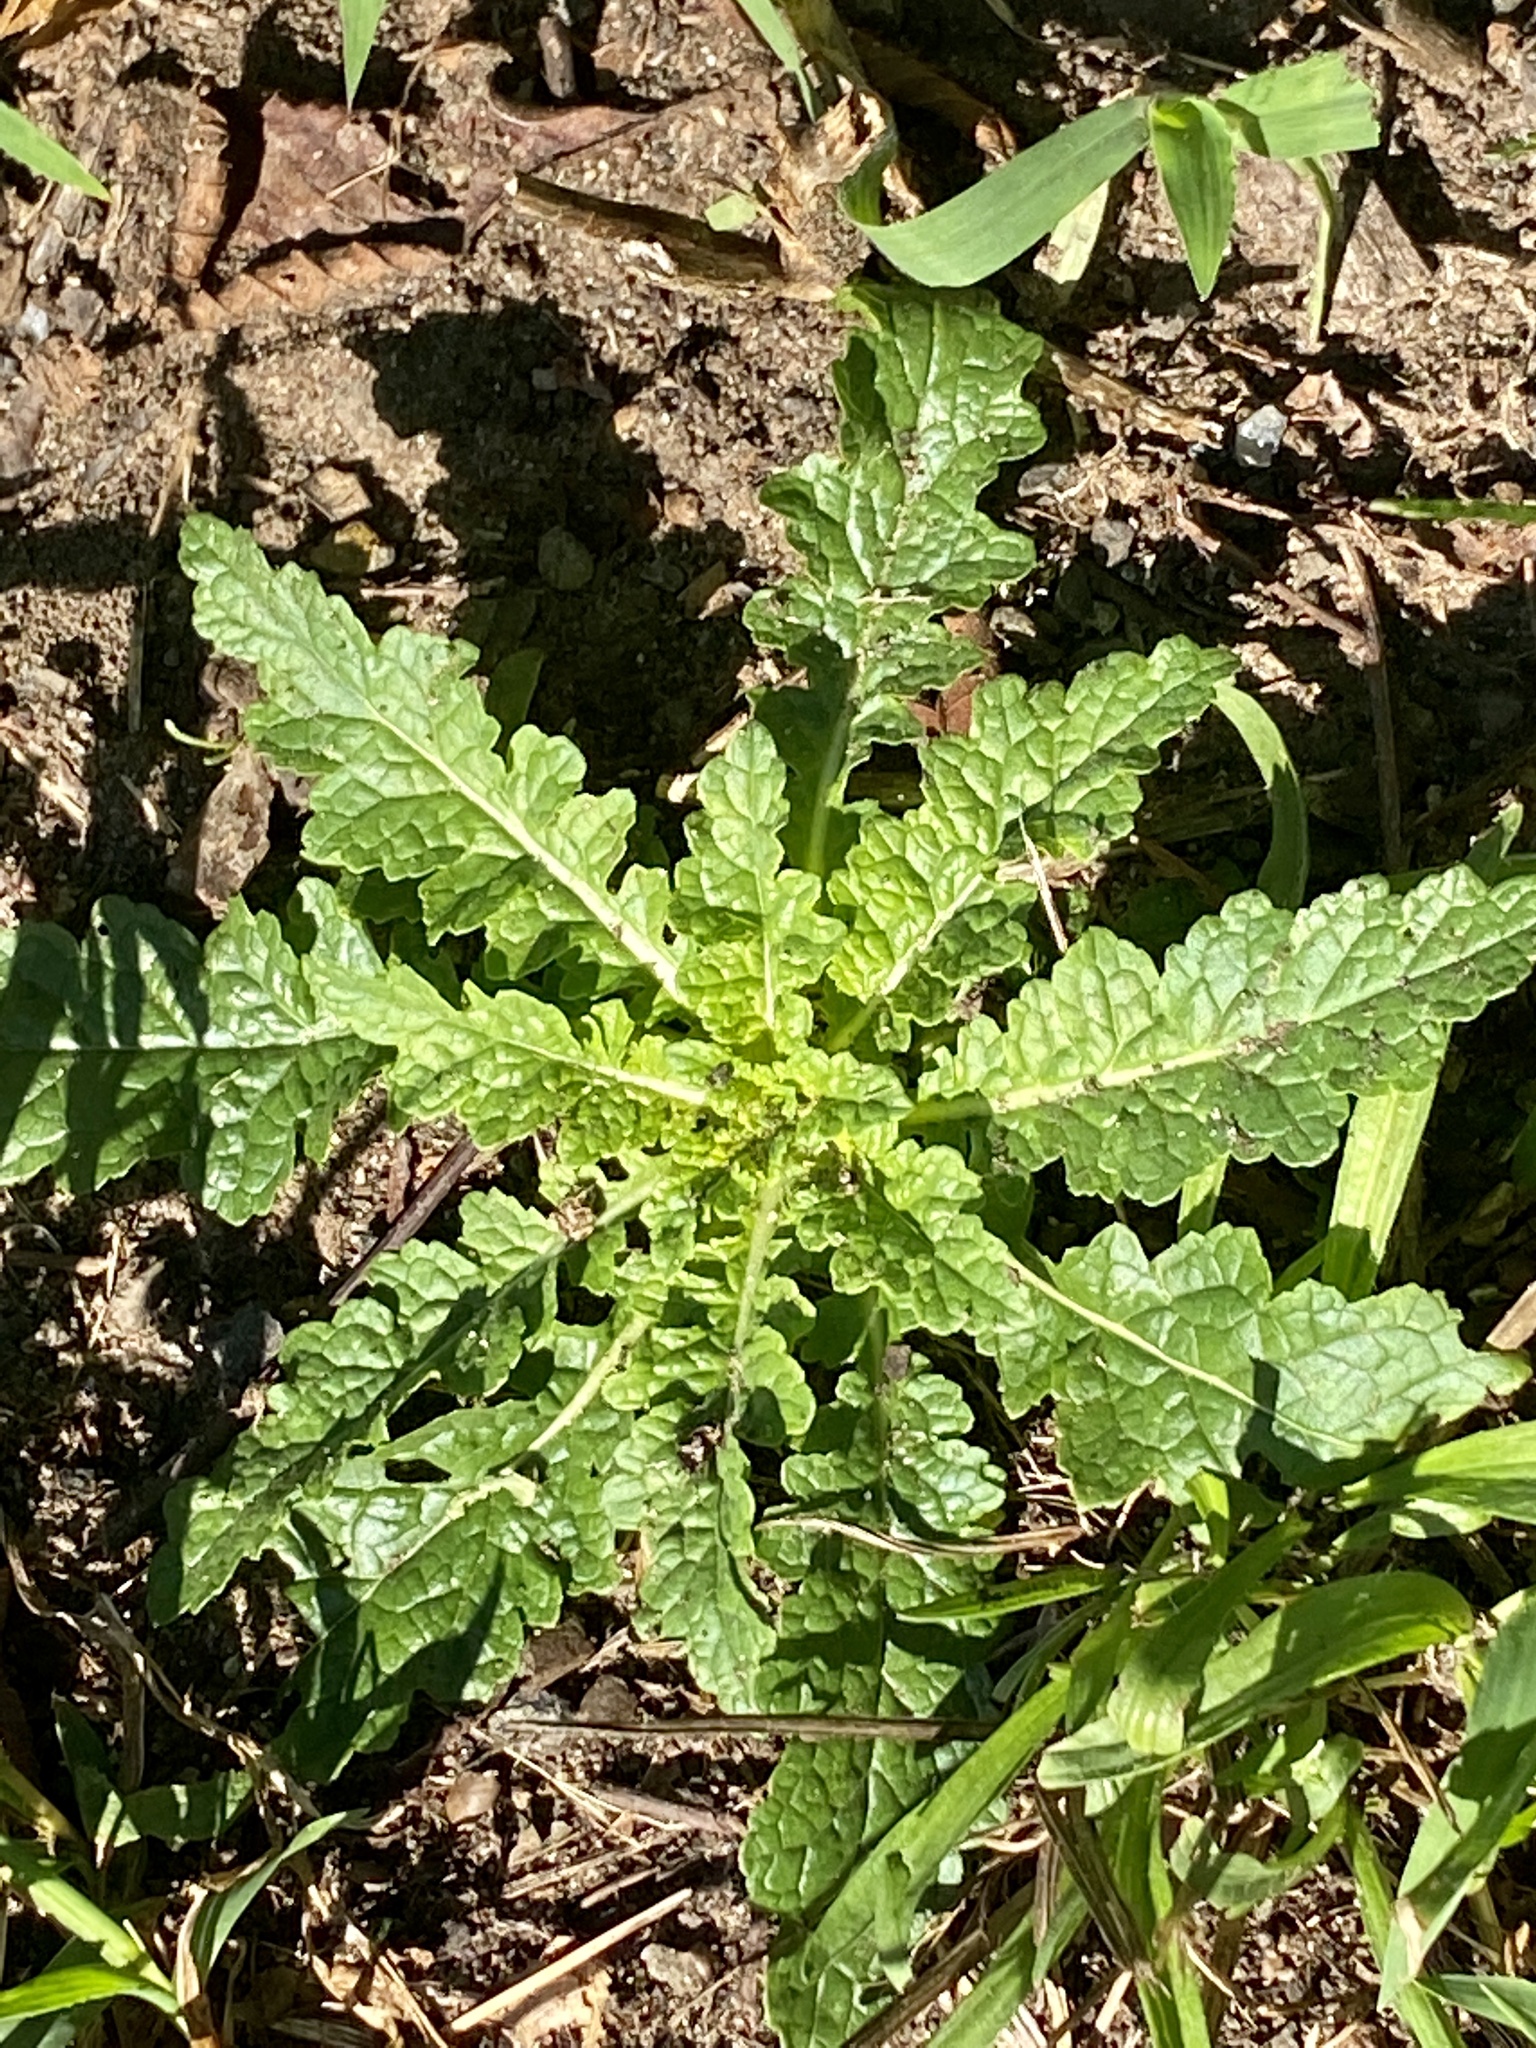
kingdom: Plantae
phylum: Tracheophyta
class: Magnoliopsida
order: Lamiales
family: Scrophulariaceae
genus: Verbascum
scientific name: Verbascum blattaria
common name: Moth mullein
